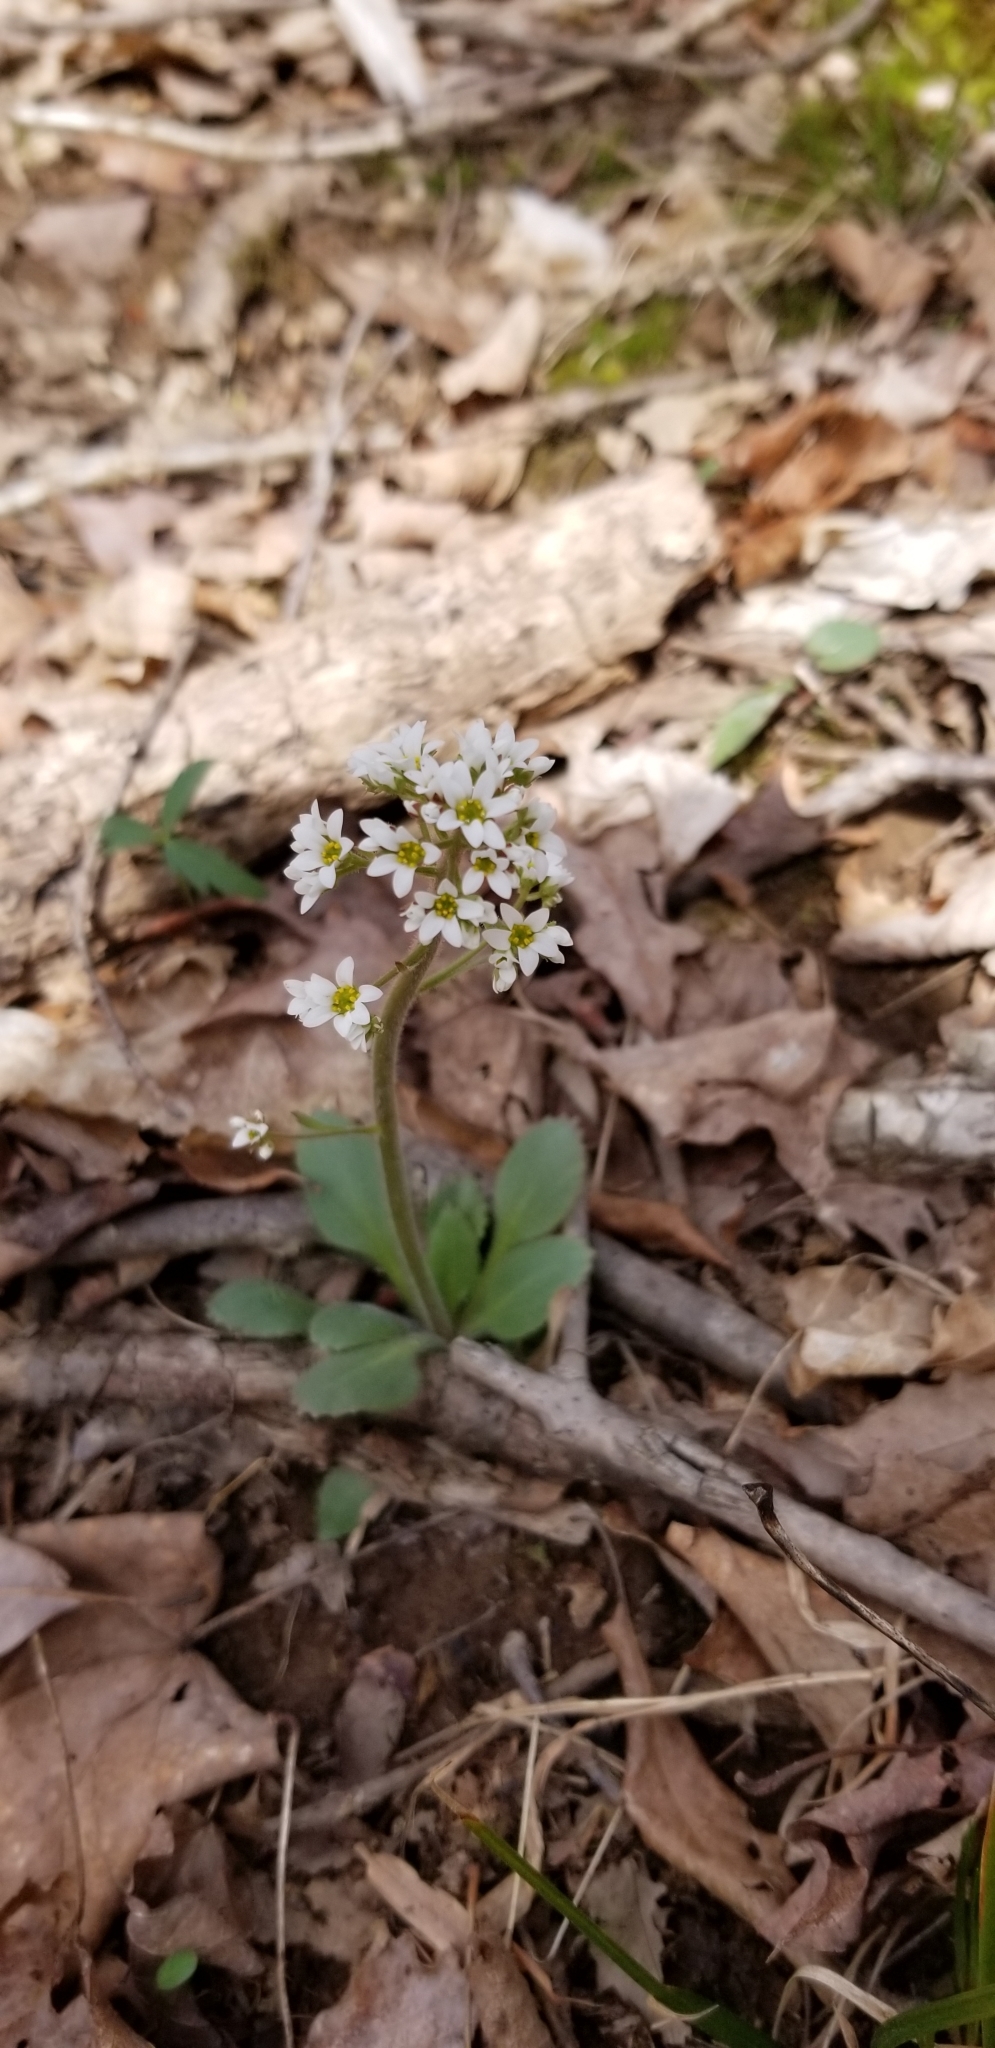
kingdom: Plantae
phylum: Tracheophyta
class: Magnoliopsida
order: Saxifragales
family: Saxifragaceae
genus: Micranthes
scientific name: Micranthes virginiensis
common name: Early saxifrage
